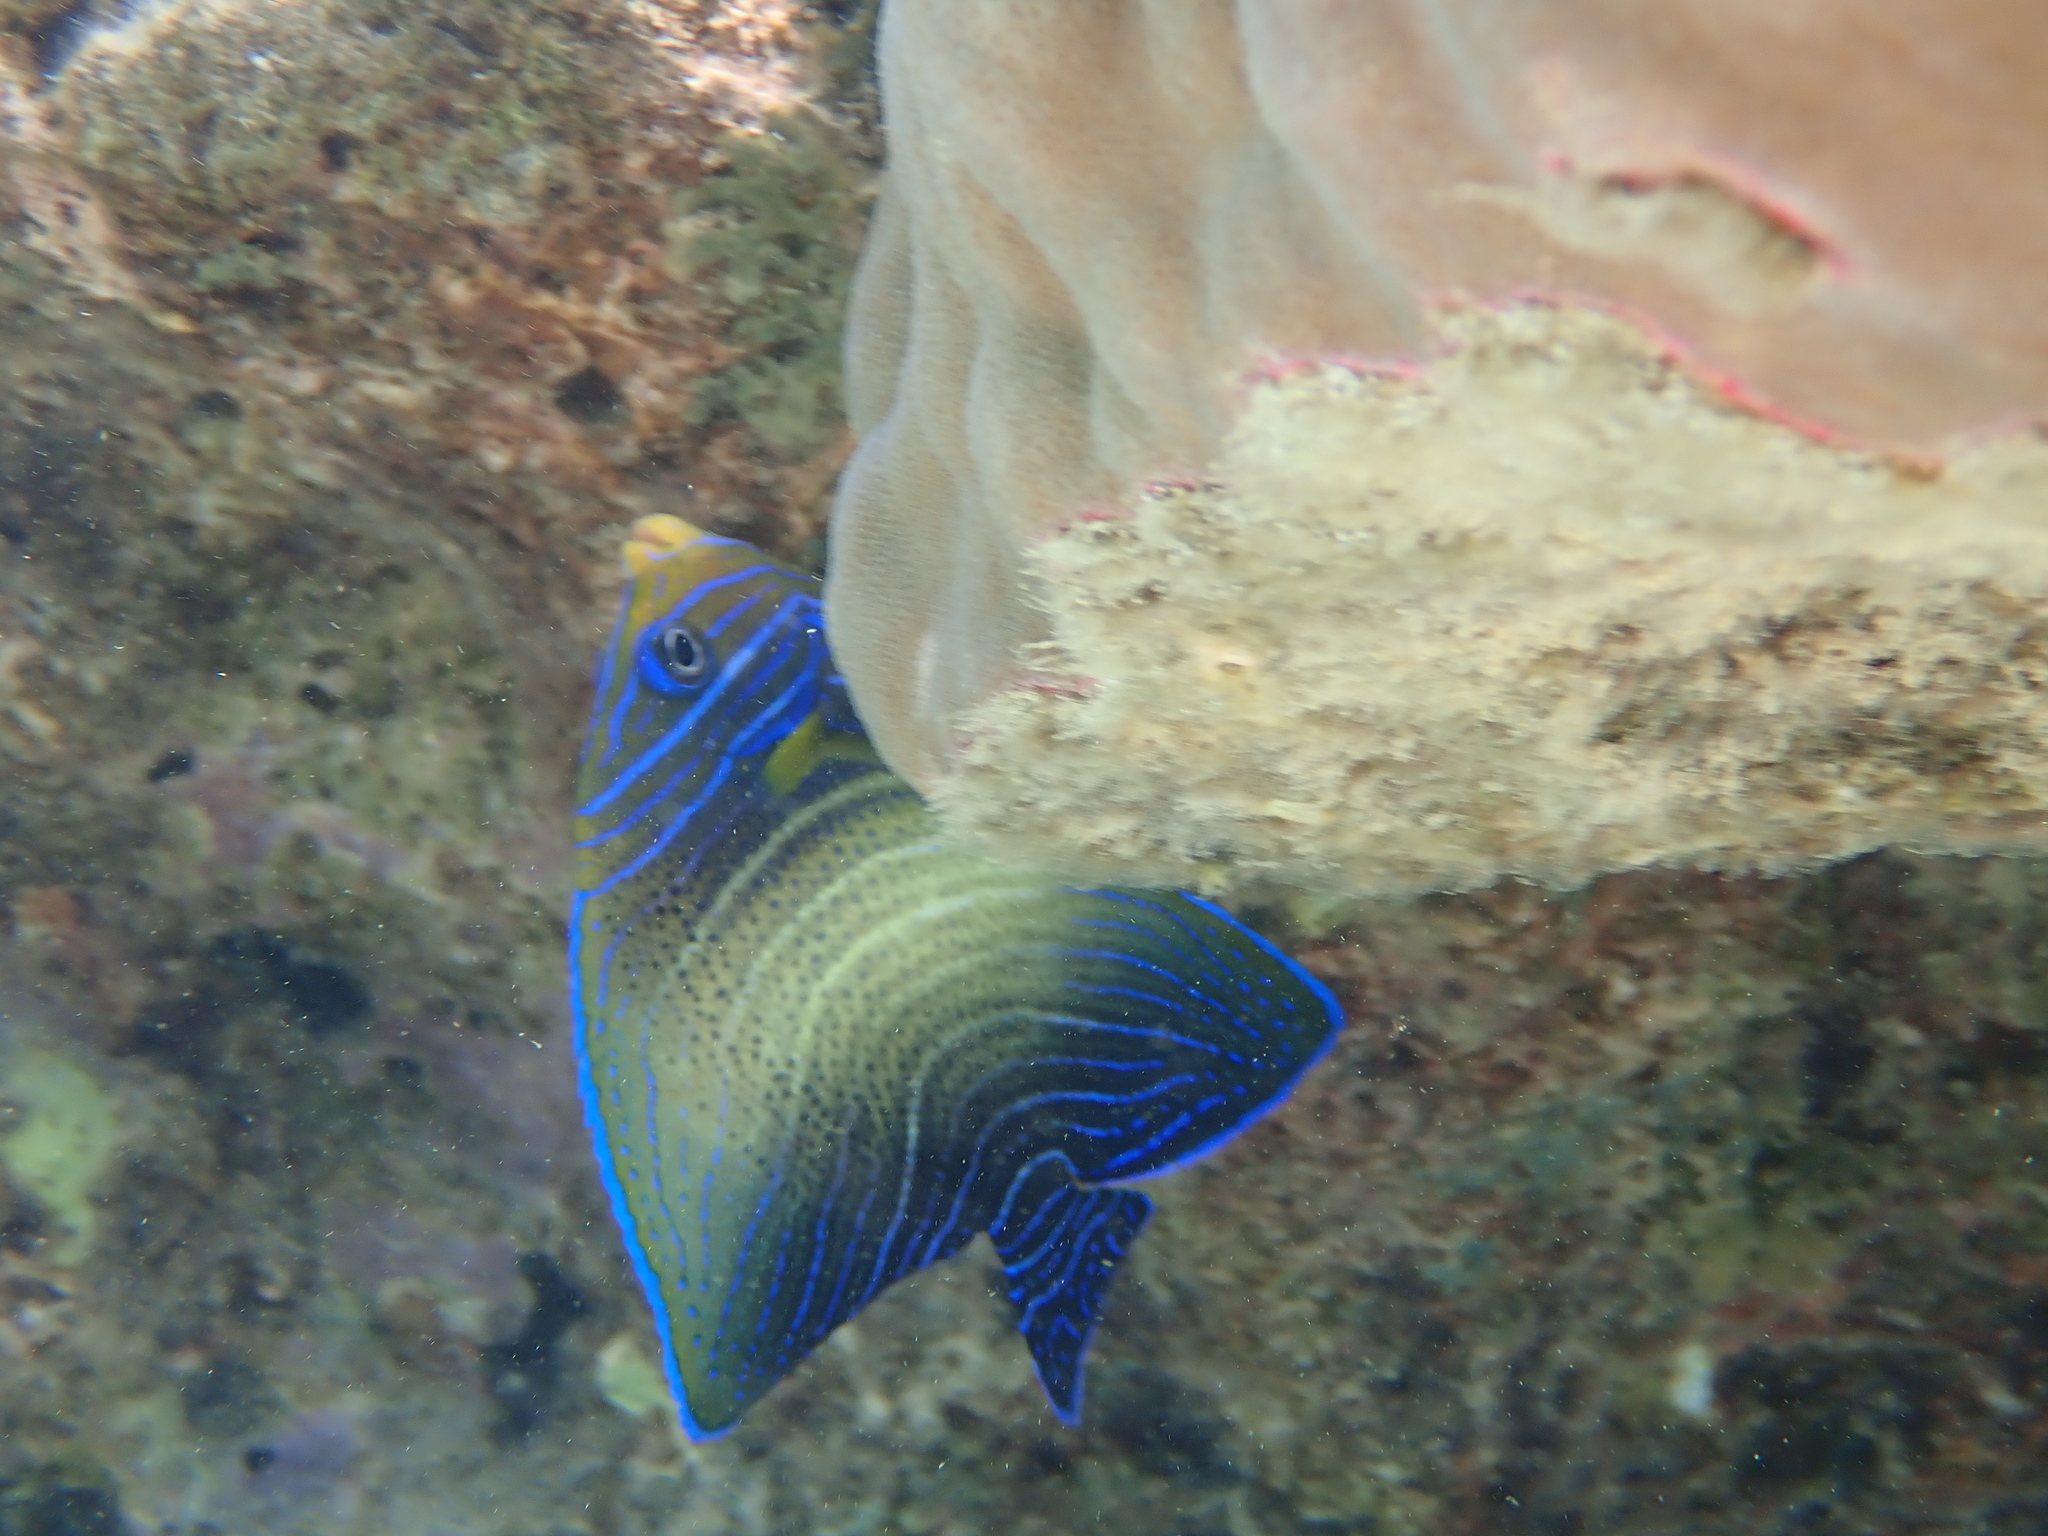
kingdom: Animalia
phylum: Chordata
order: Perciformes
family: Pomacanthidae
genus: Pomacanthus
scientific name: Pomacanthus semicirculatus
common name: Semicircle angelfish
